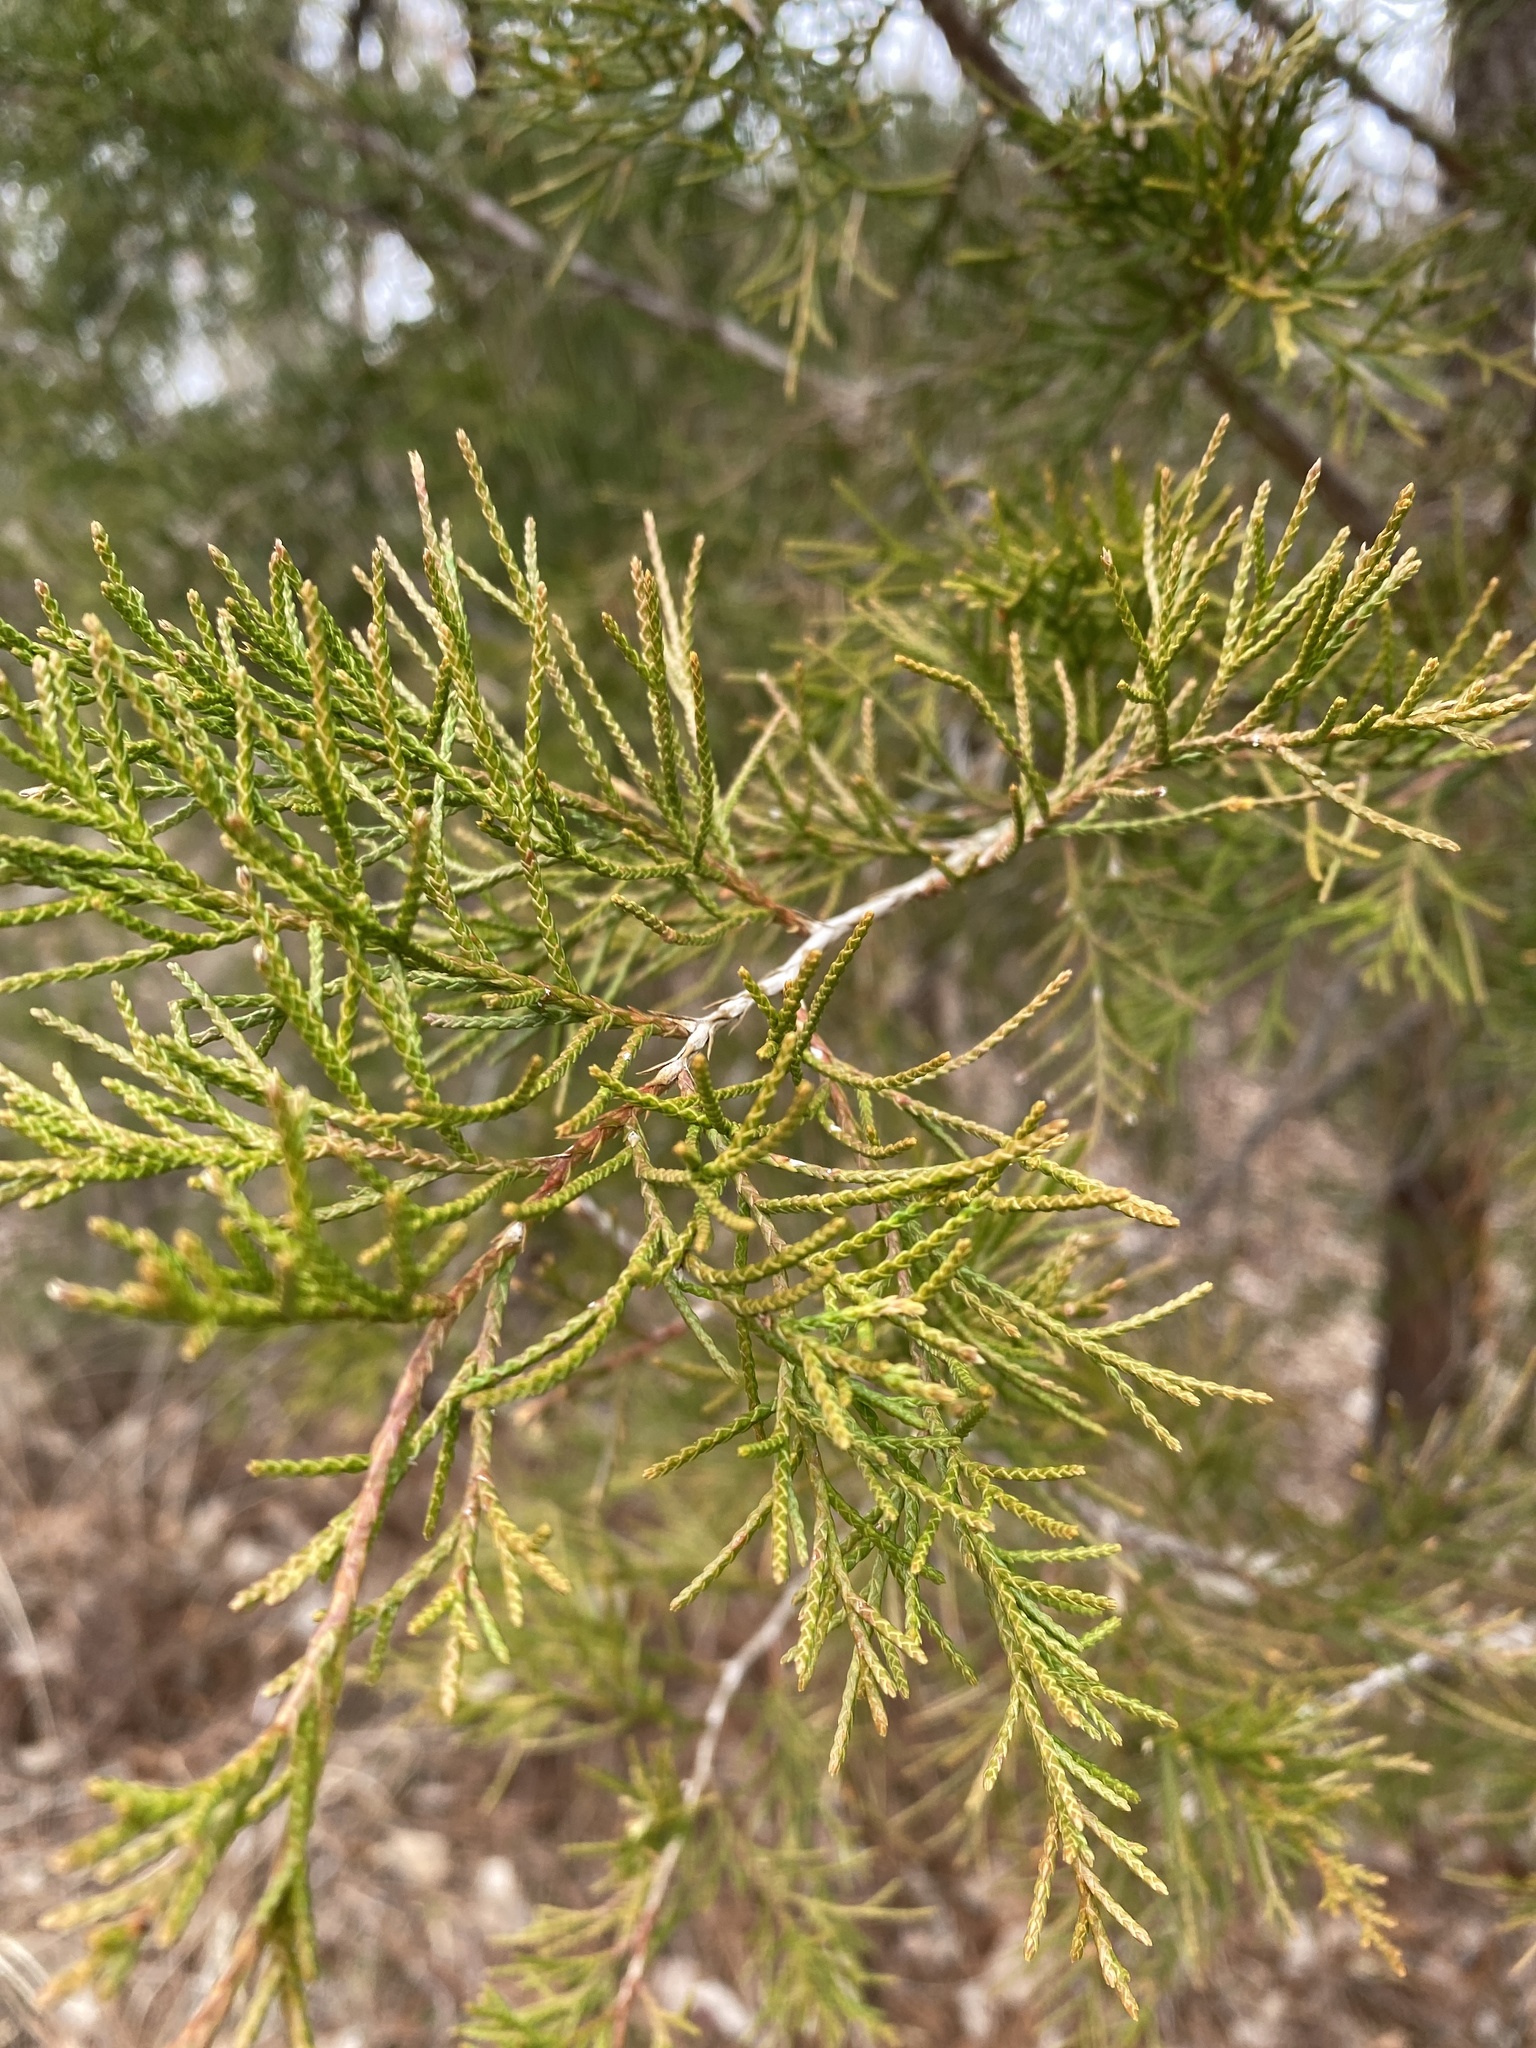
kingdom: Plantae
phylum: Tracheophyta
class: Pinopsida
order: Pinales
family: Cupressaceae
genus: Juniperus
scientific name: Juniperus virginiana
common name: Red juniper
